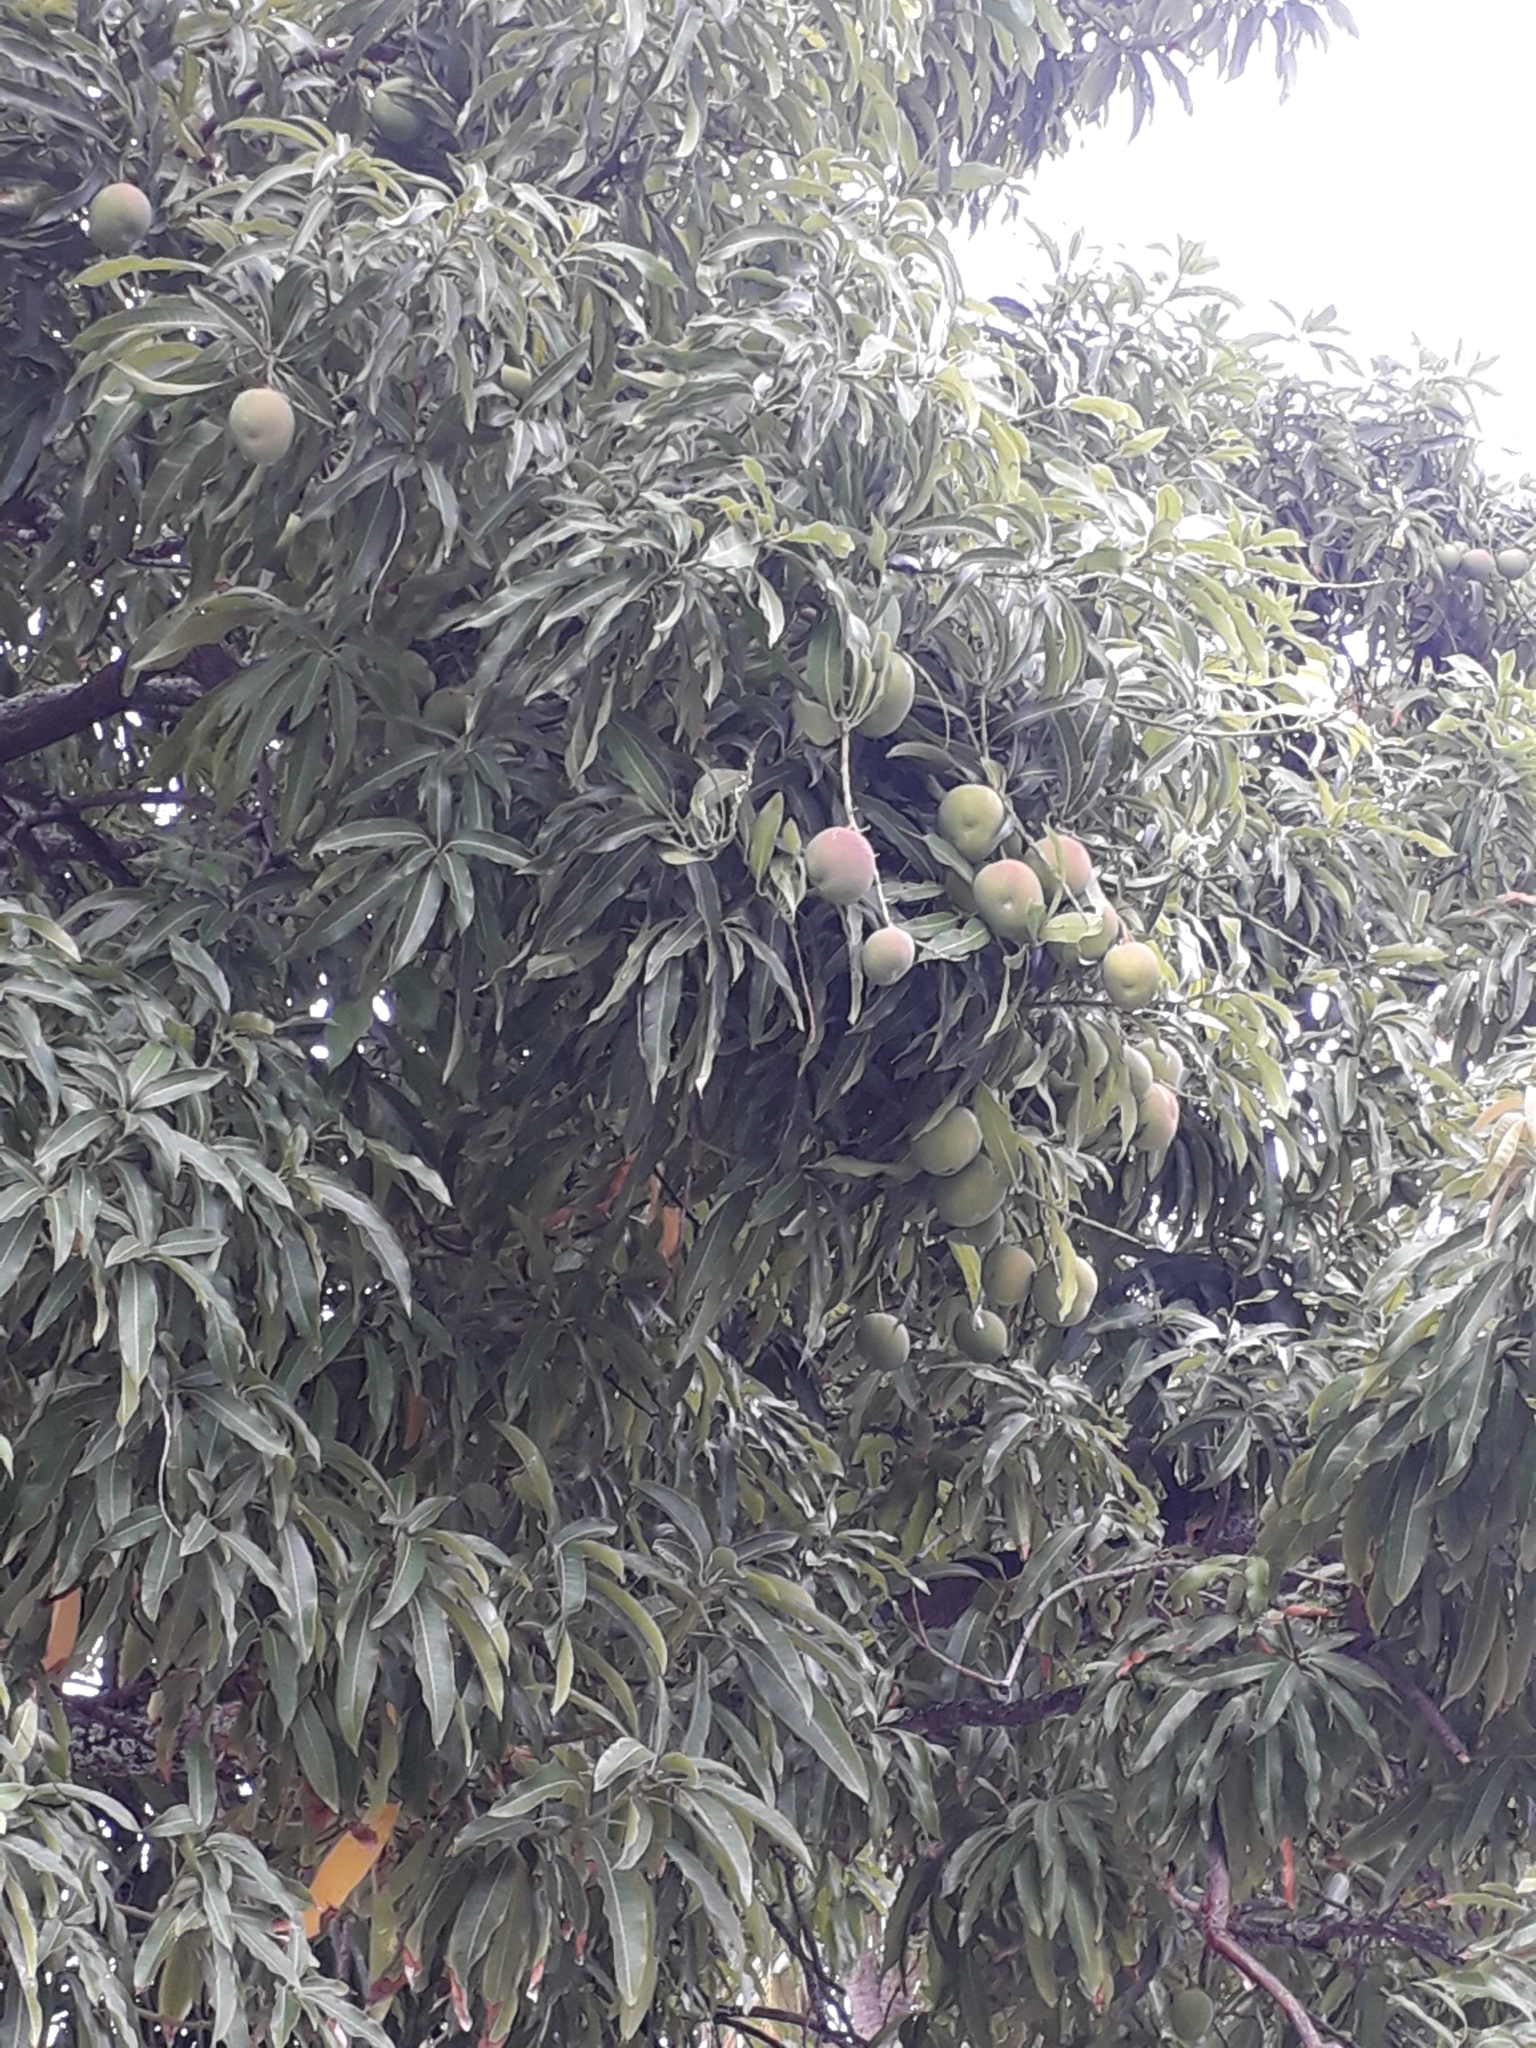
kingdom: Plantae
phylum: Tracheophyta
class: Magnoliopsida
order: Sapindales
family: Anacardiaceae
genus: Mangifera
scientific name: Mangifera indica
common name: Mango
